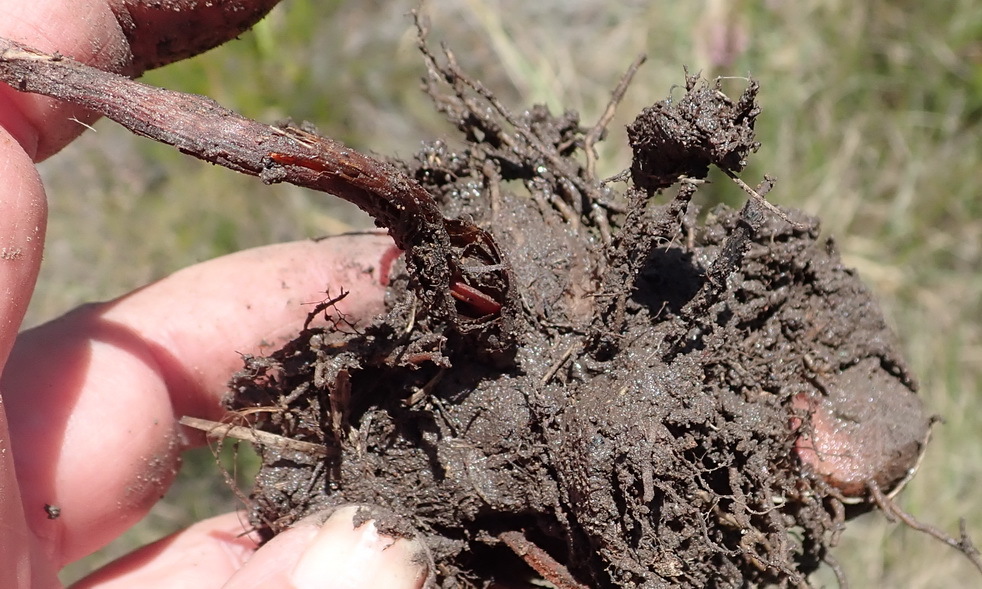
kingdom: Plantae
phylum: Tracheophyta
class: Liliopsida
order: Asparagales
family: Asparagaceae
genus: Eriospermum
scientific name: Eriospermum dielsianum
